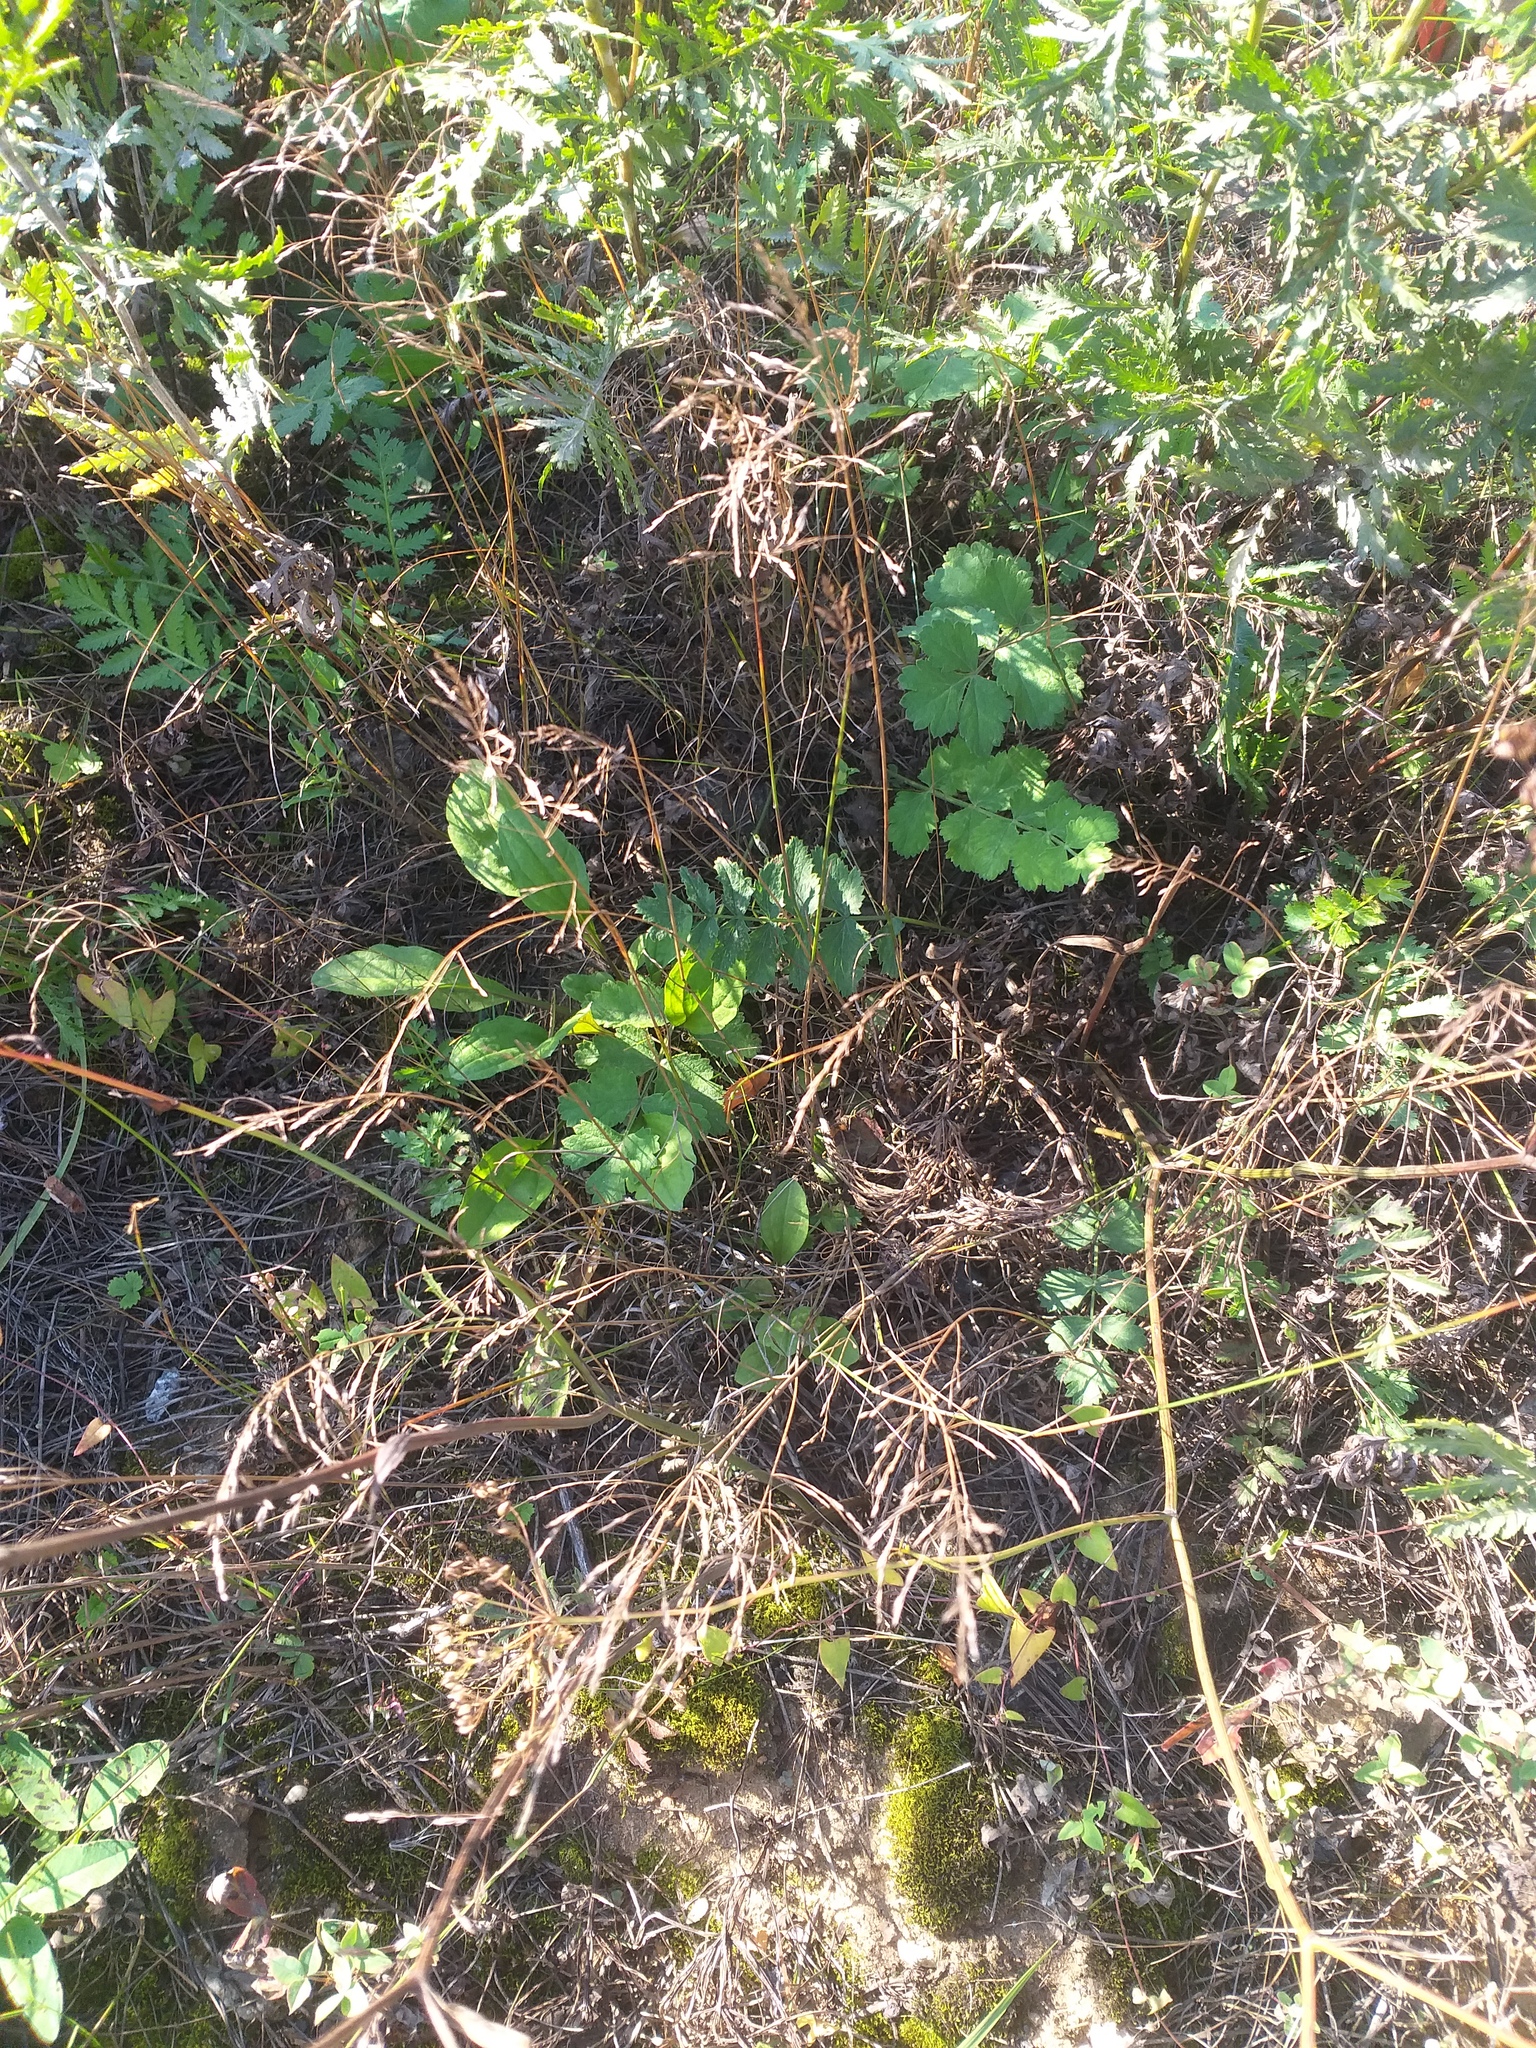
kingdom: Plantae
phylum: Tracheophyta
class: Magnoliopsida
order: Apiales
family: Apiaceae
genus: Pimpinella
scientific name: Pimpinella saxifraga
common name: Burnet-saxifrage
